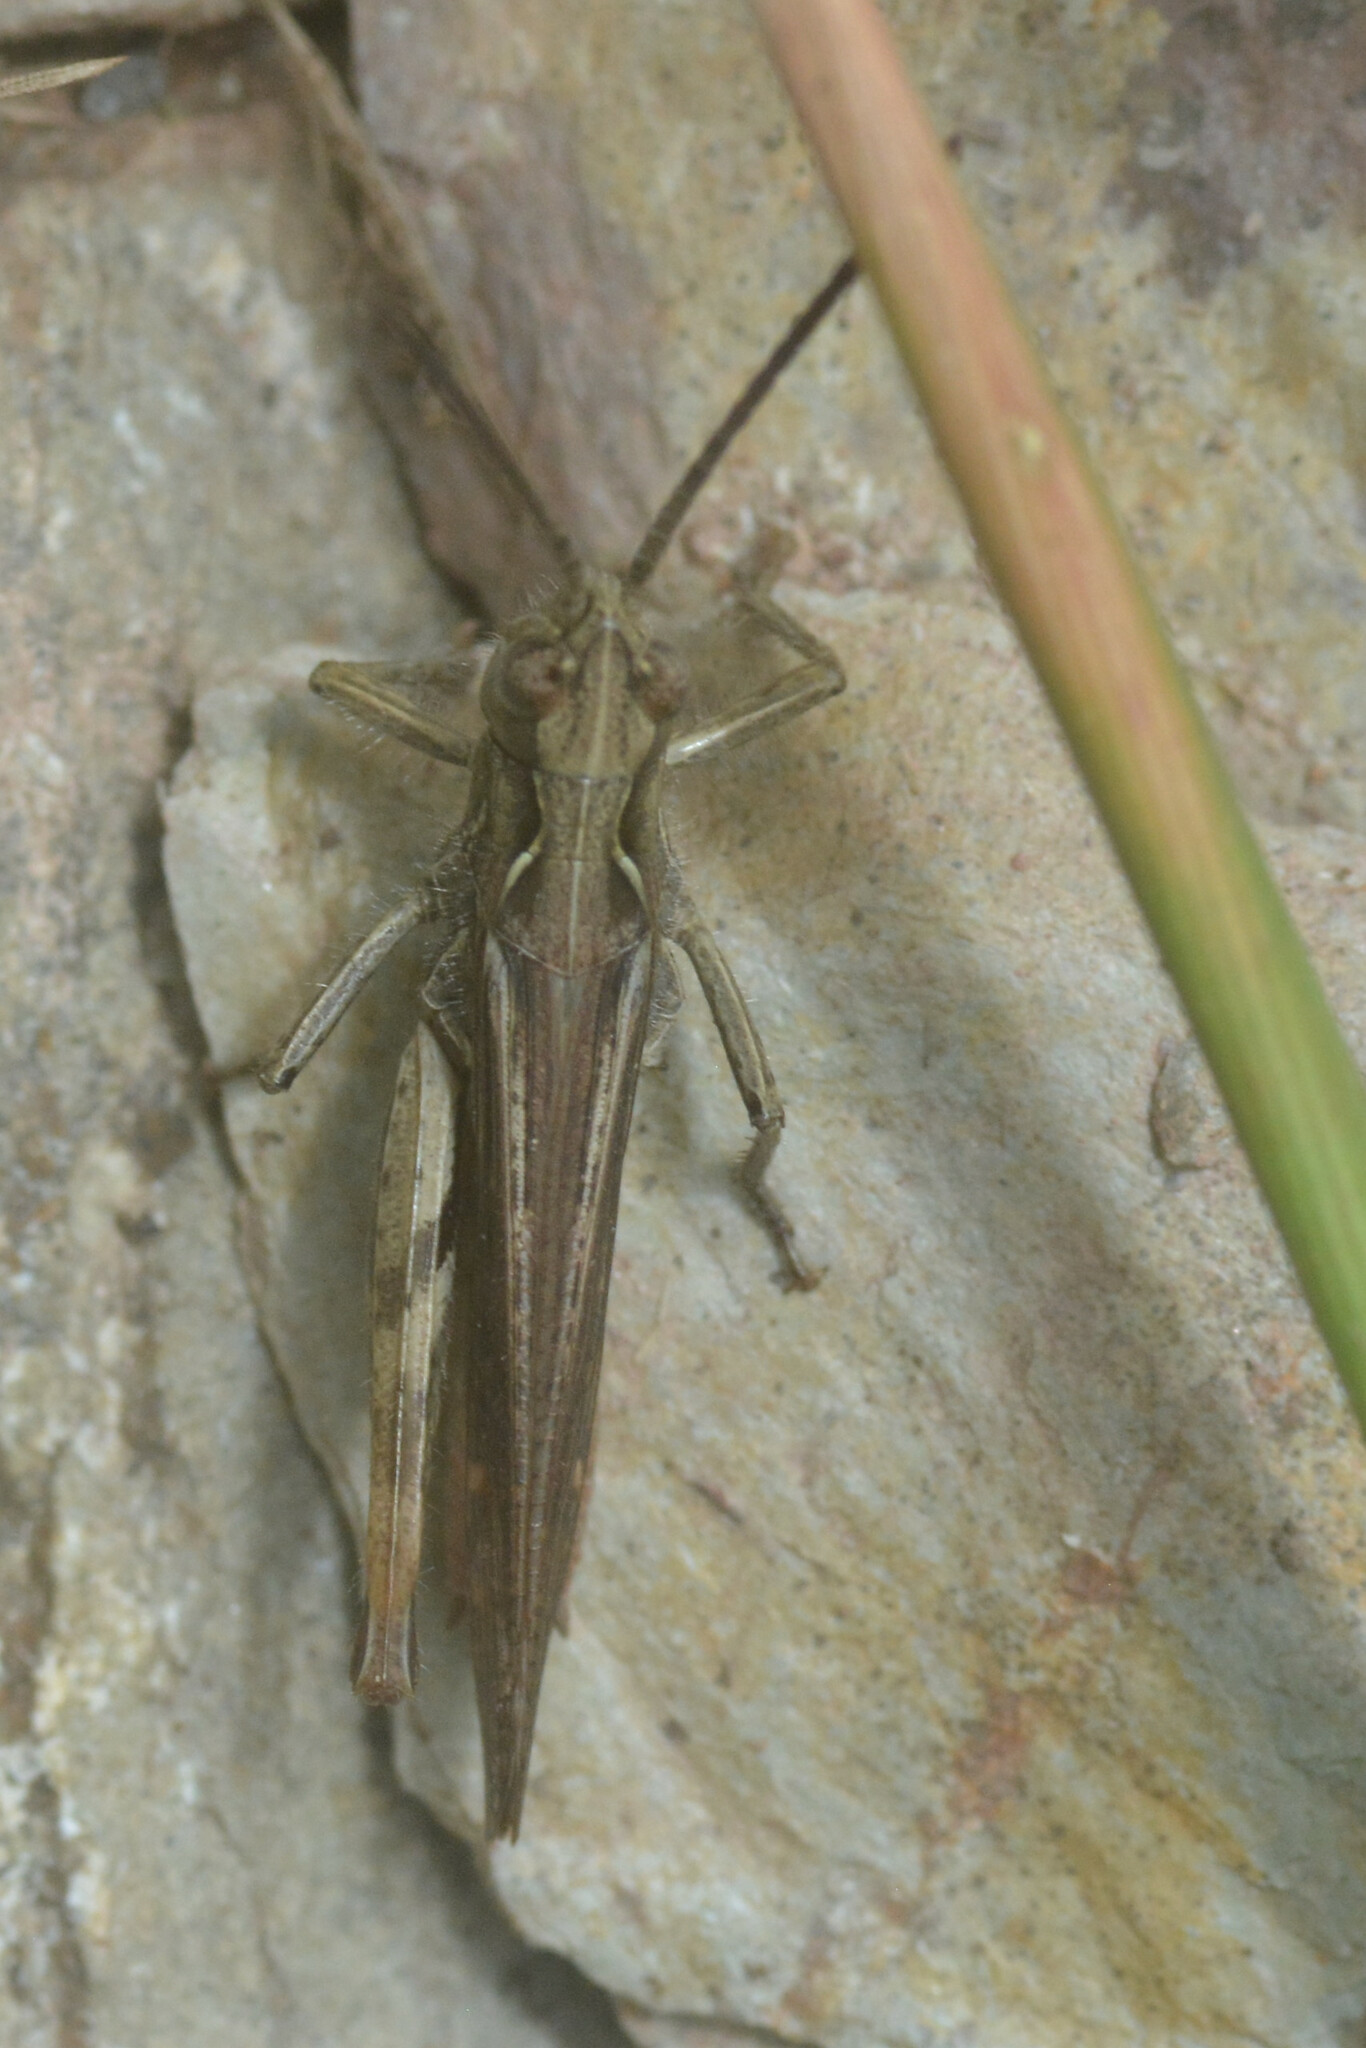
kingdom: Animalia
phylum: Arthropoda
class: Insecta
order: Orthoptera
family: Acrididae
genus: Chorthippus
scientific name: Chorthippus brunneus
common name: Field grasshopper
